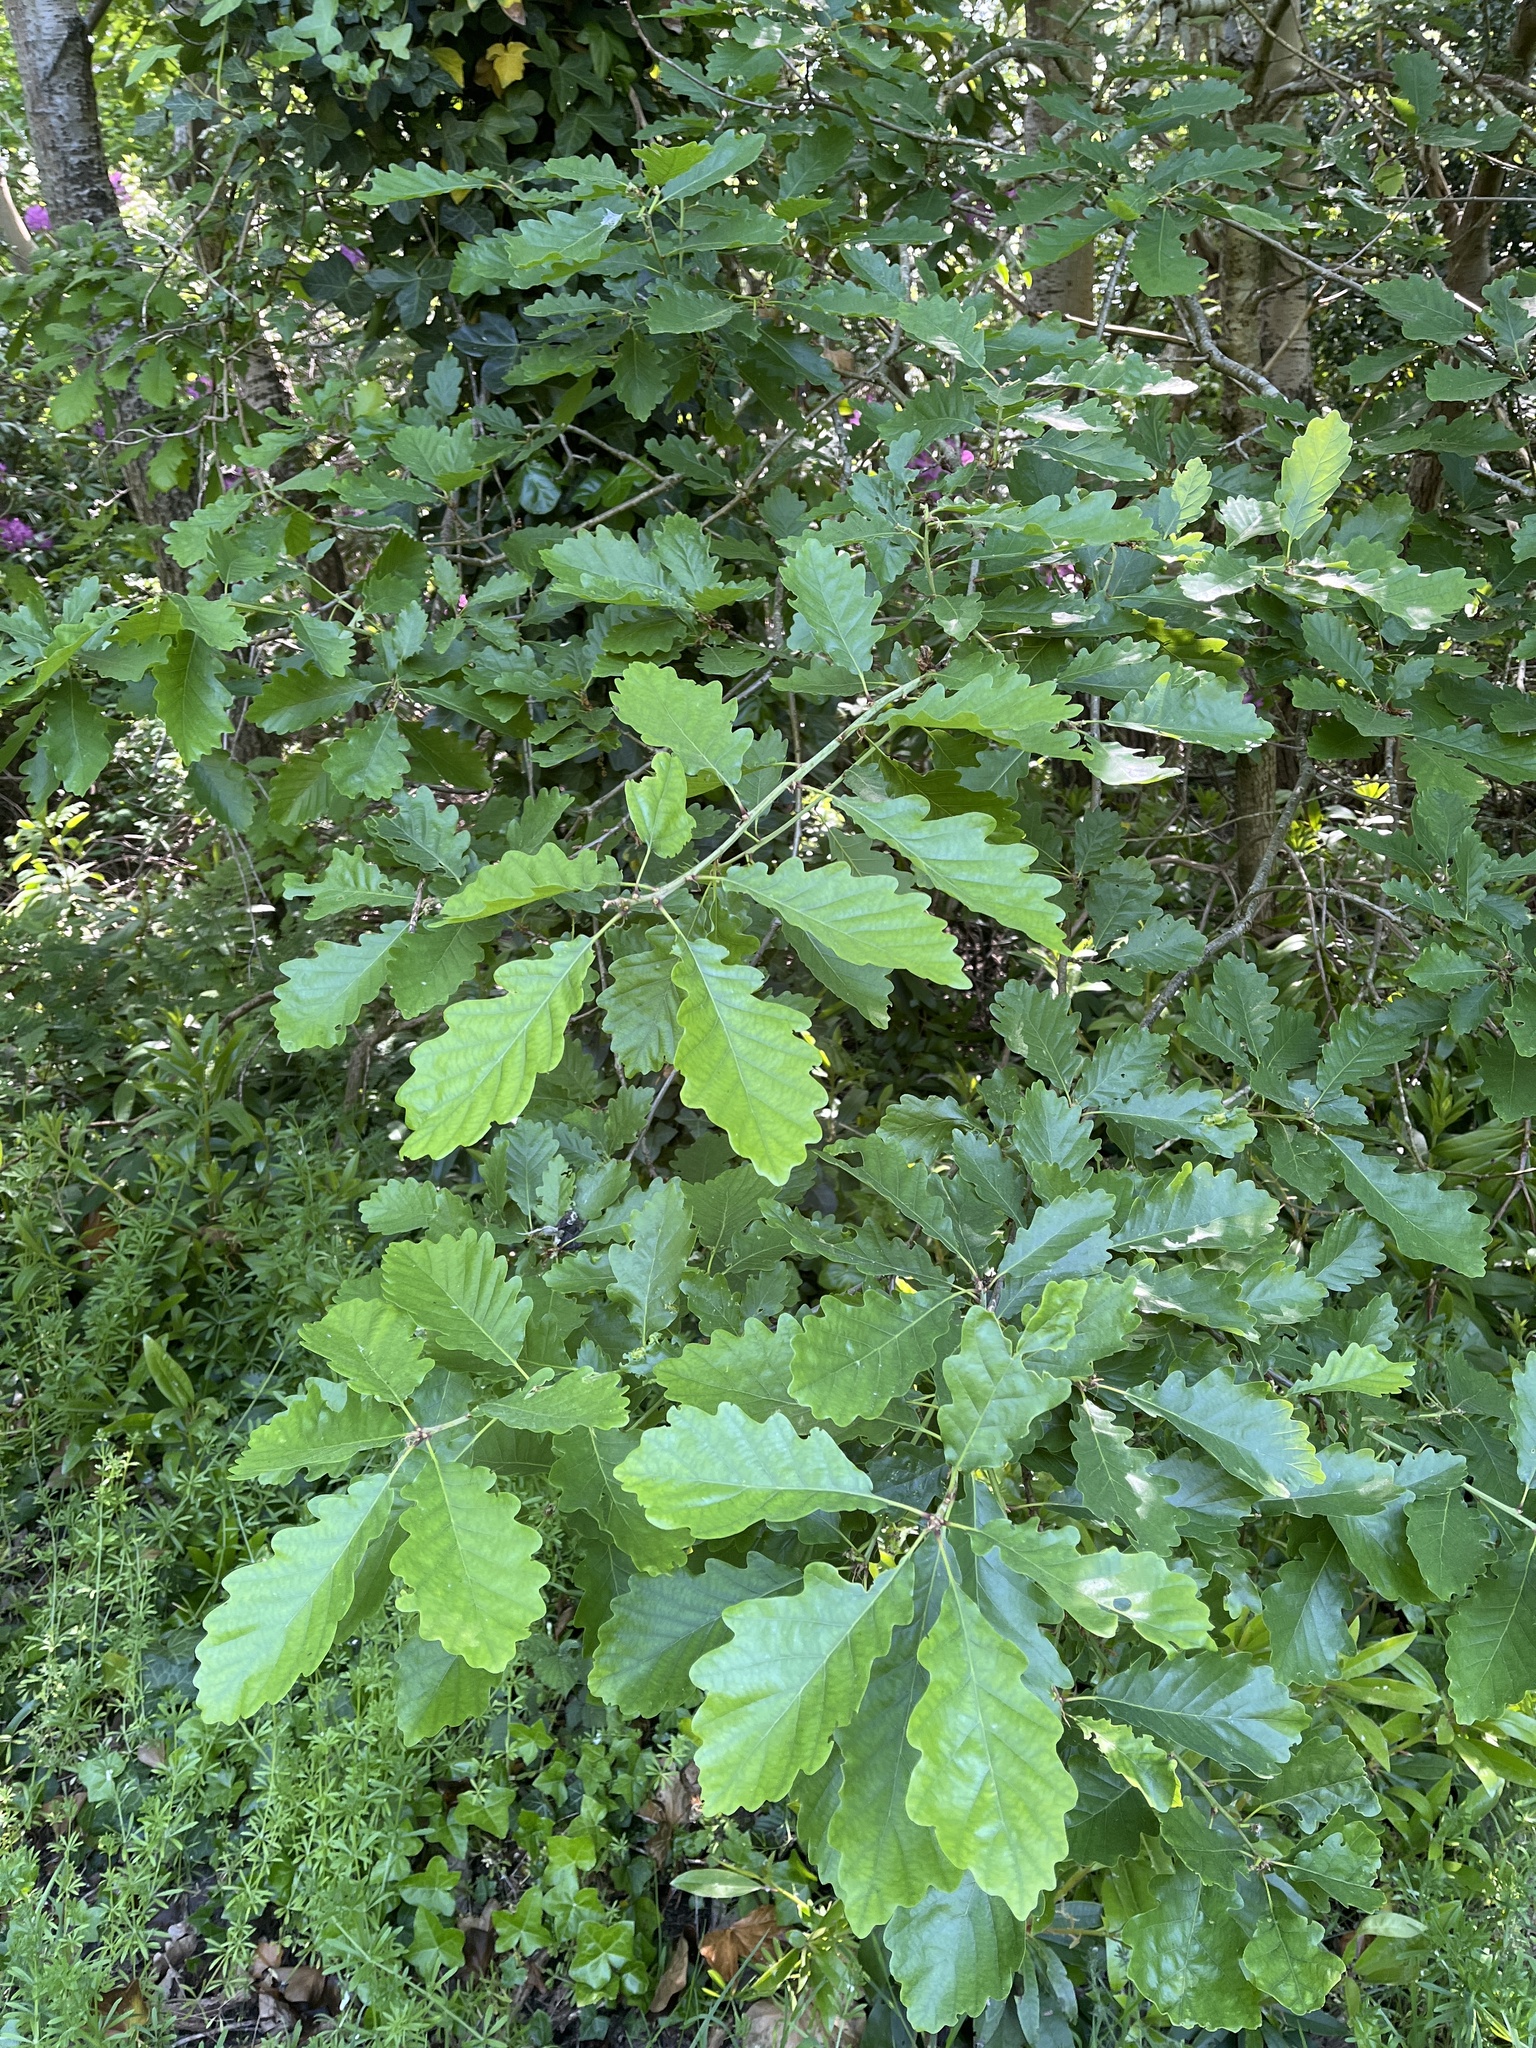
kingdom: Plantae
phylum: Tracheophyta
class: Magnoliopsida
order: Fagales
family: Fagaceae
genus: Quercus
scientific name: Quercus petraea
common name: Sessile oak
